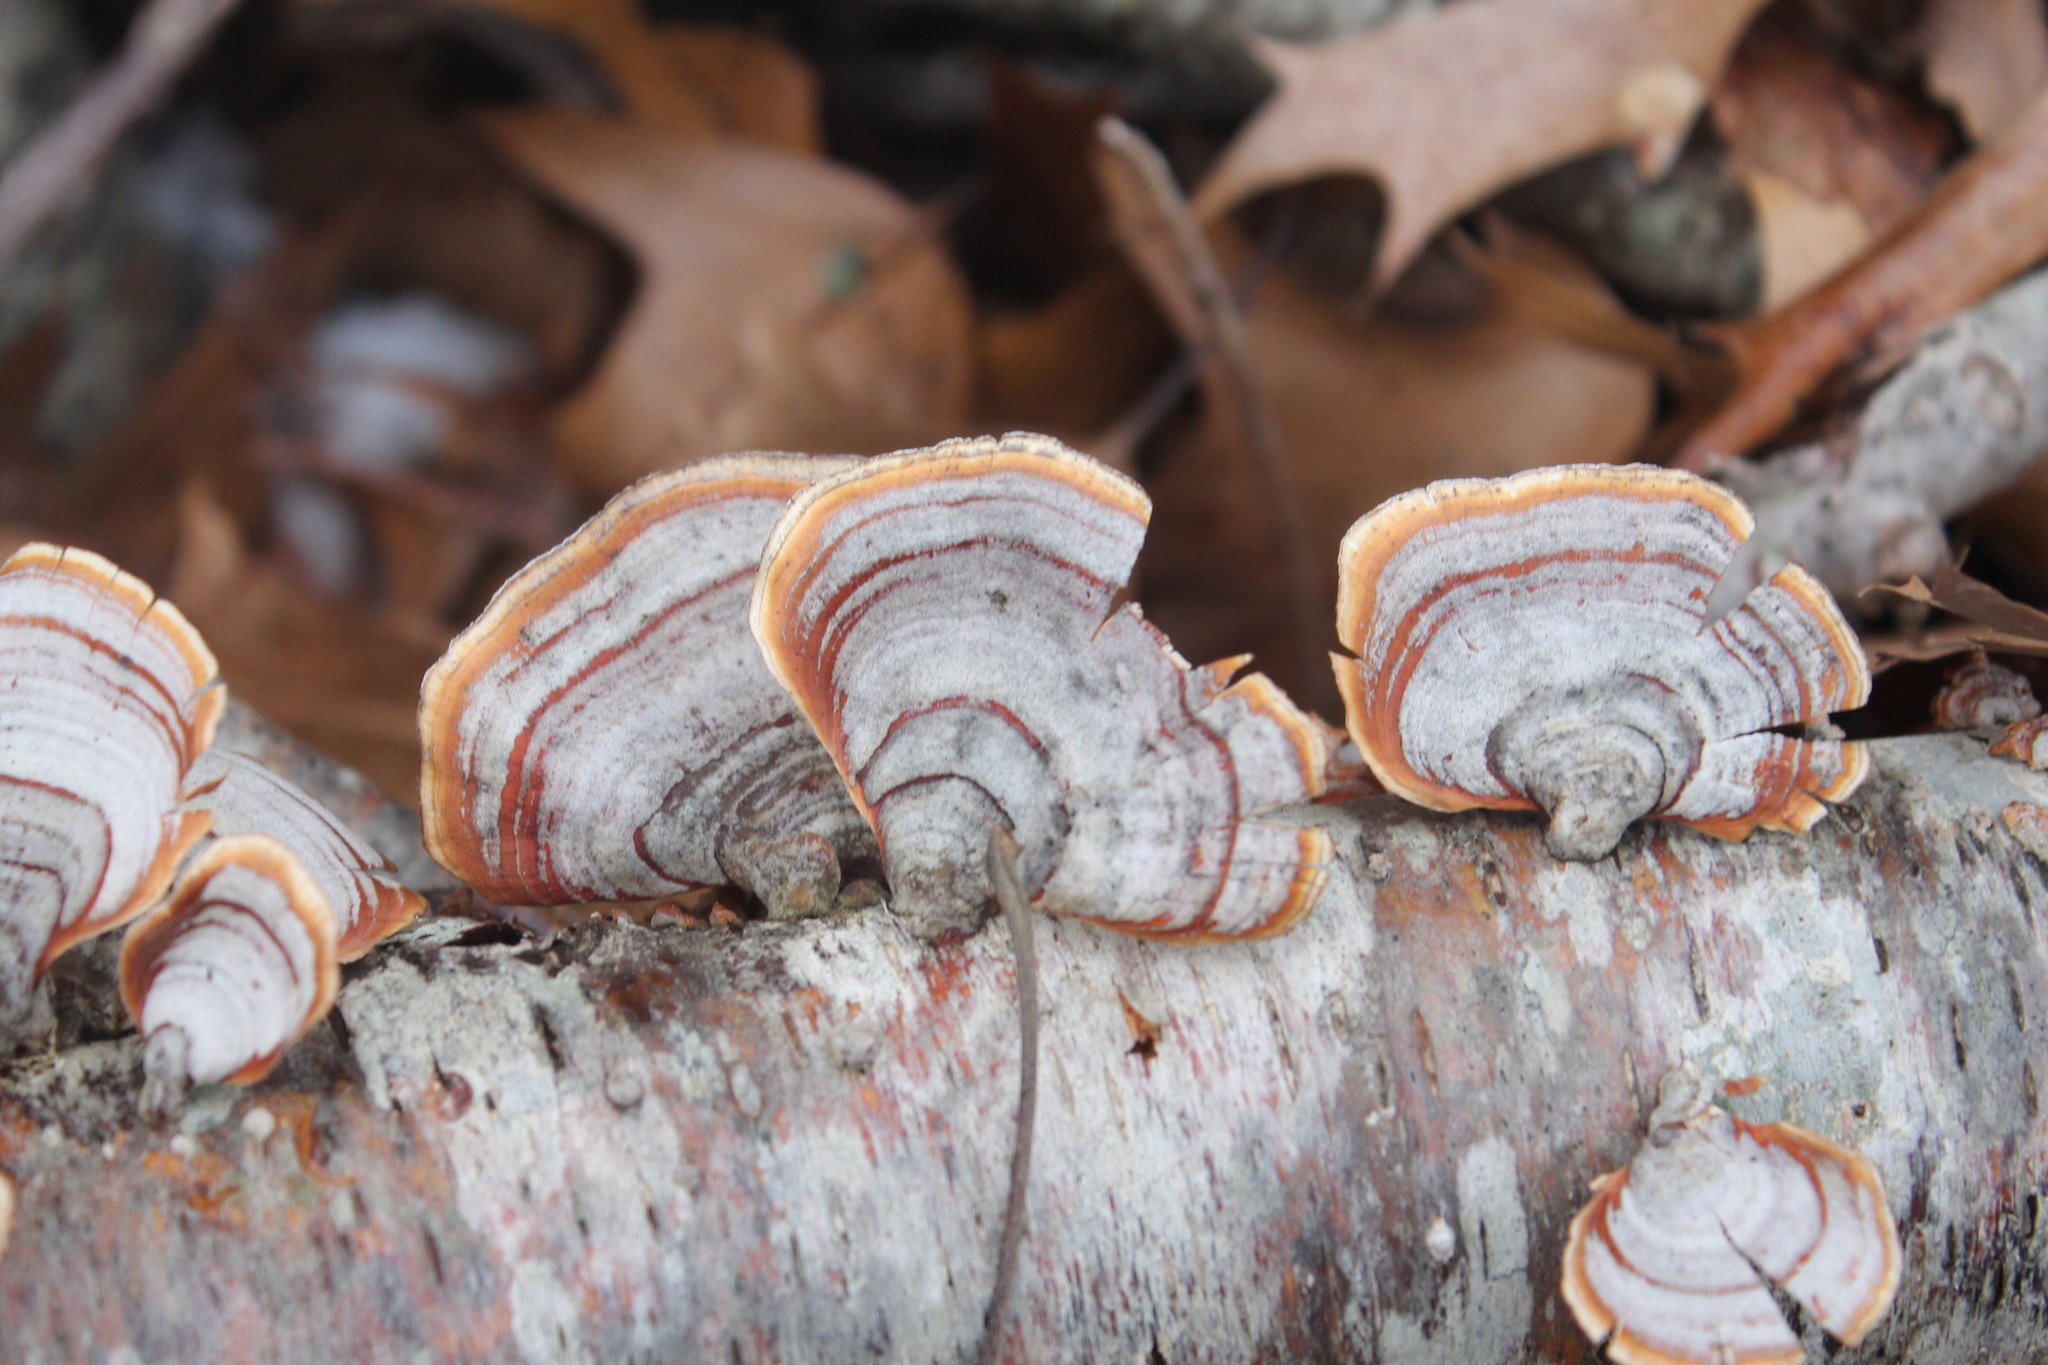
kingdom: Fungi
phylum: Basidiomycota
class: Agaricomycetes
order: Russulales
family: Stereaceae
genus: Stereum
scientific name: Stereum lobatum
